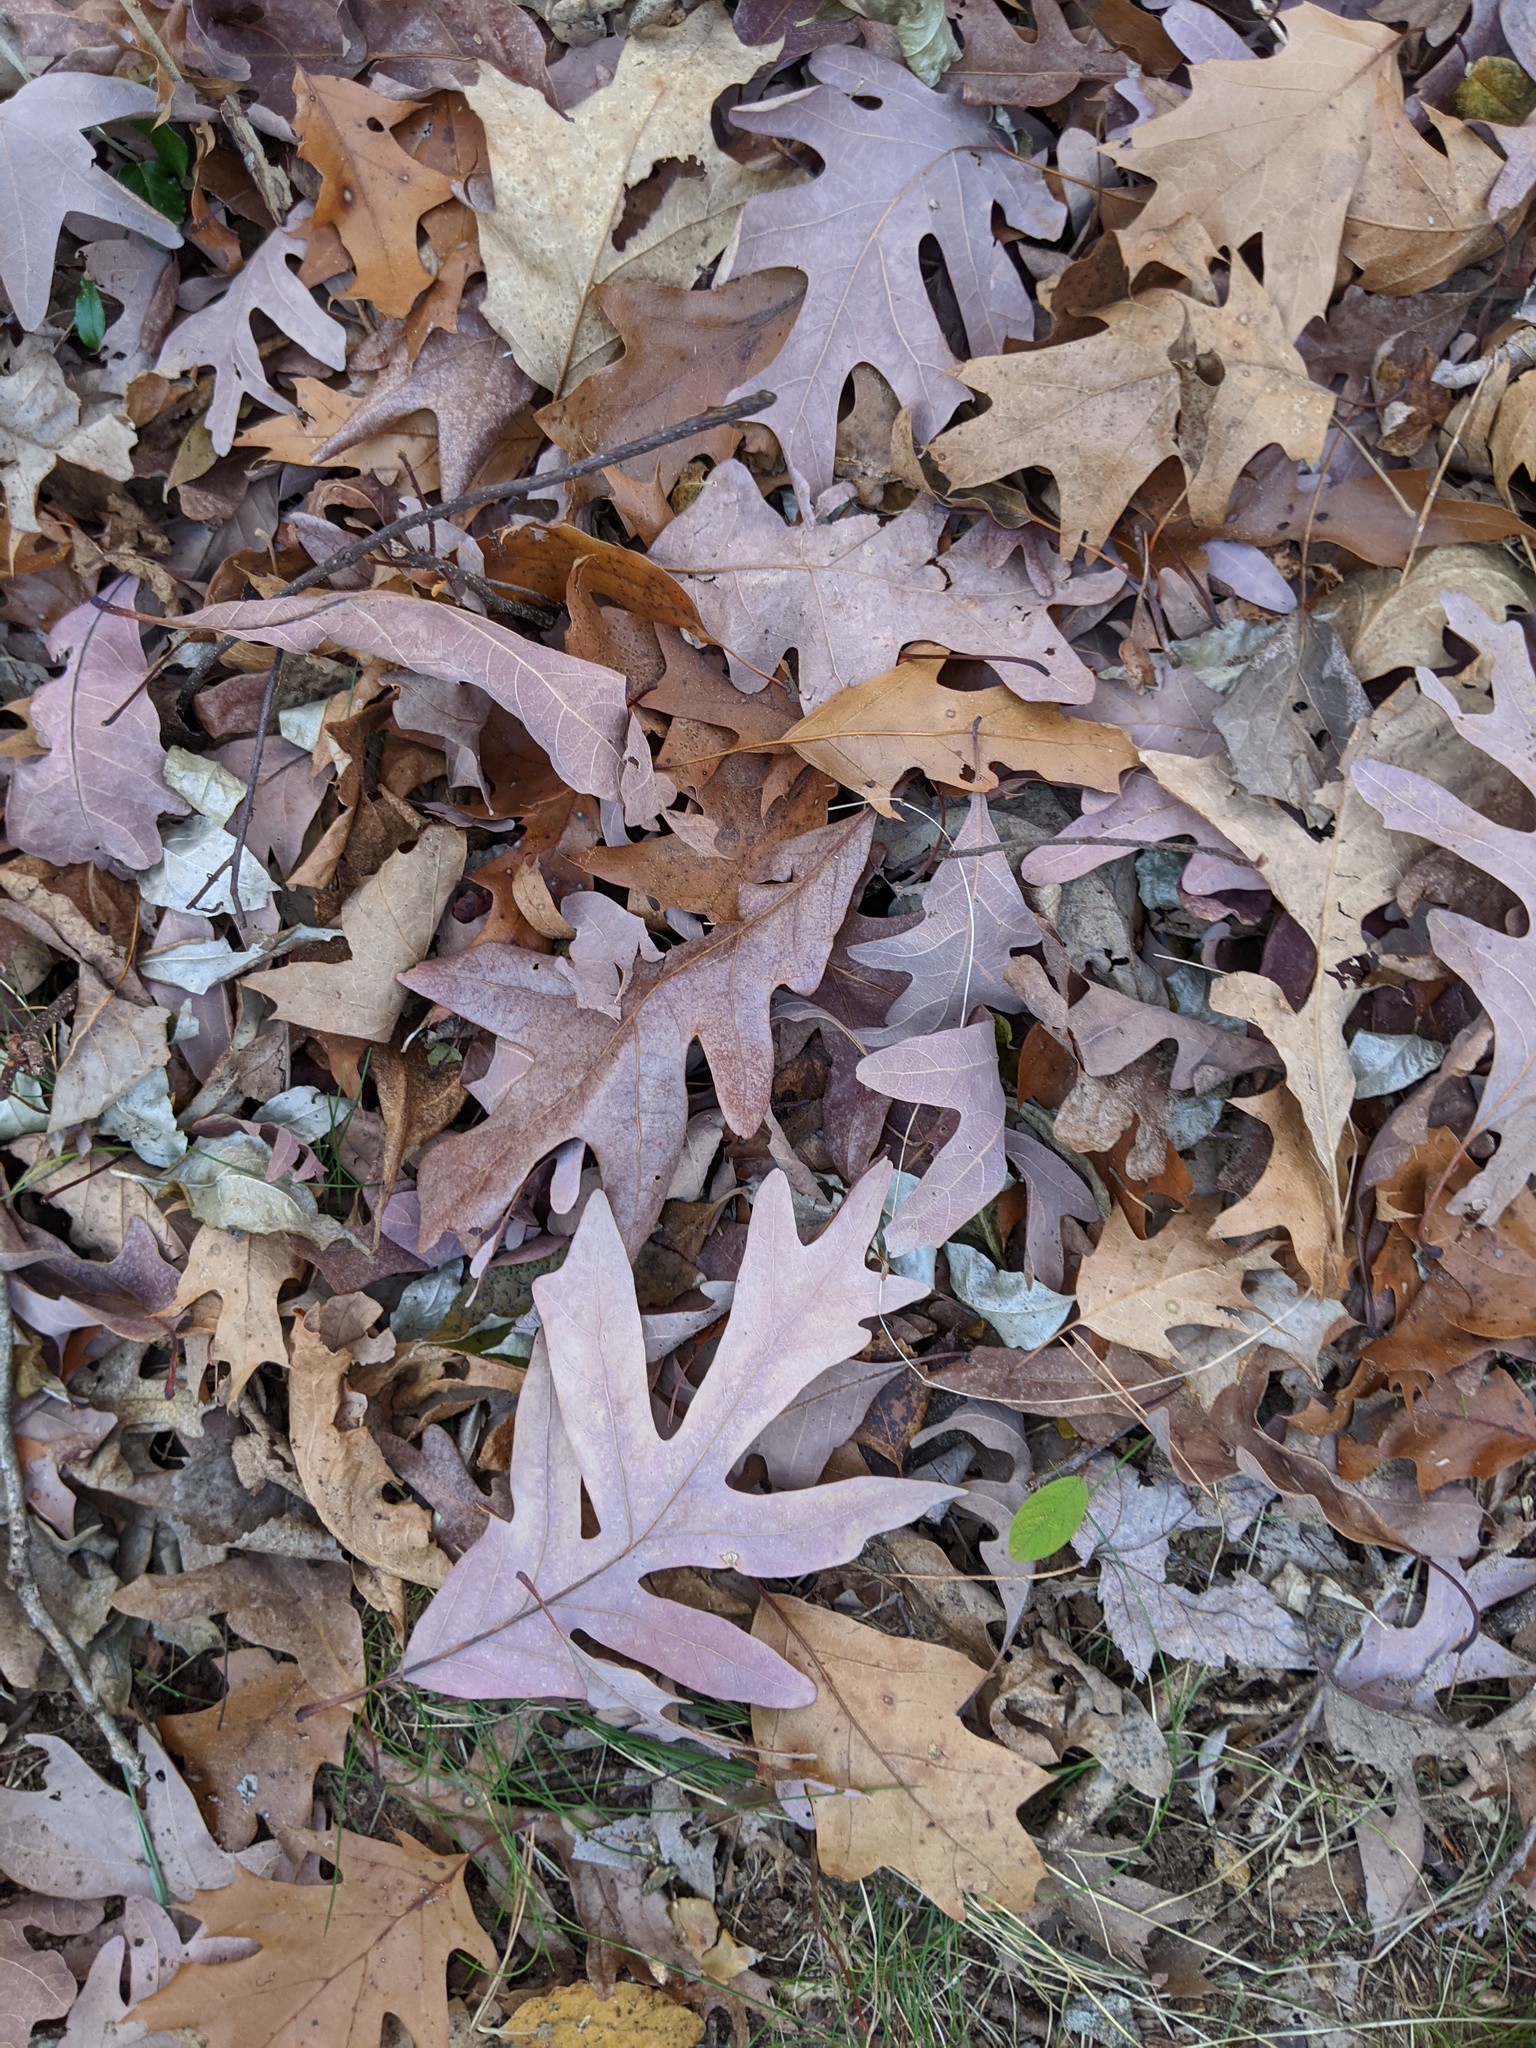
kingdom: Plantae
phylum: Tracheophyta
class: Magnoliopsida
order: Fagales
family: Fagaceae
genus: Quercus
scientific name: Quercus alba
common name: White oak
